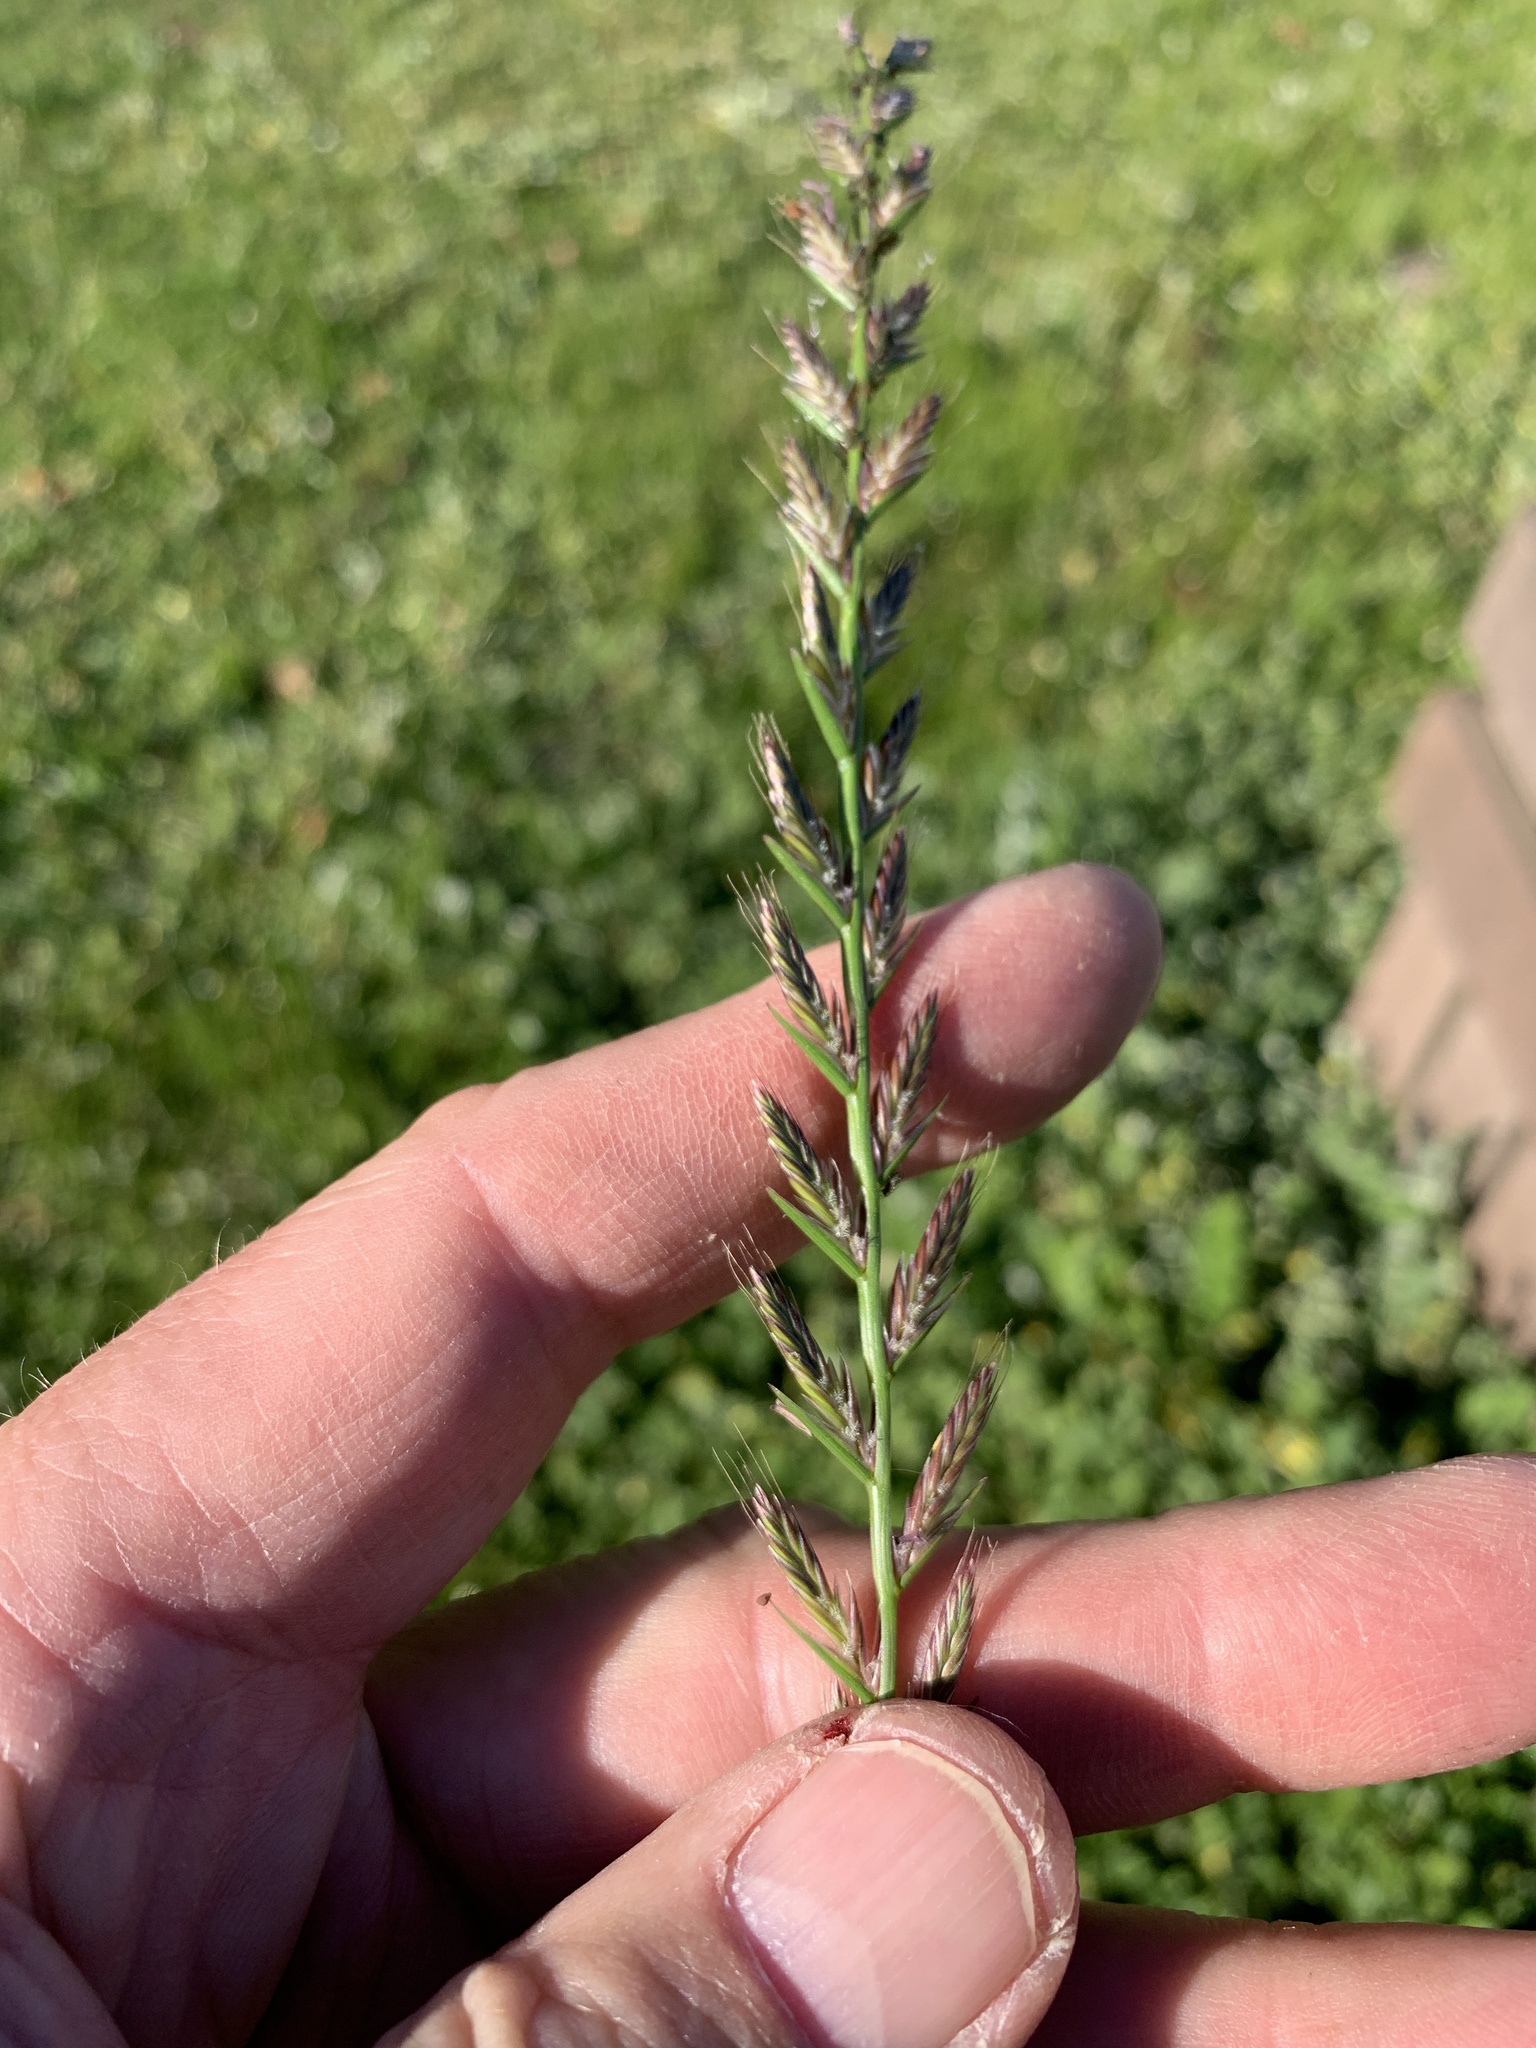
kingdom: Plantae
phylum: Tracheophyta
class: Liliopsida
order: Poales
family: Poaceae
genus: Lolium
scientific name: Lolium multiflorum
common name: Annual ryegrass
